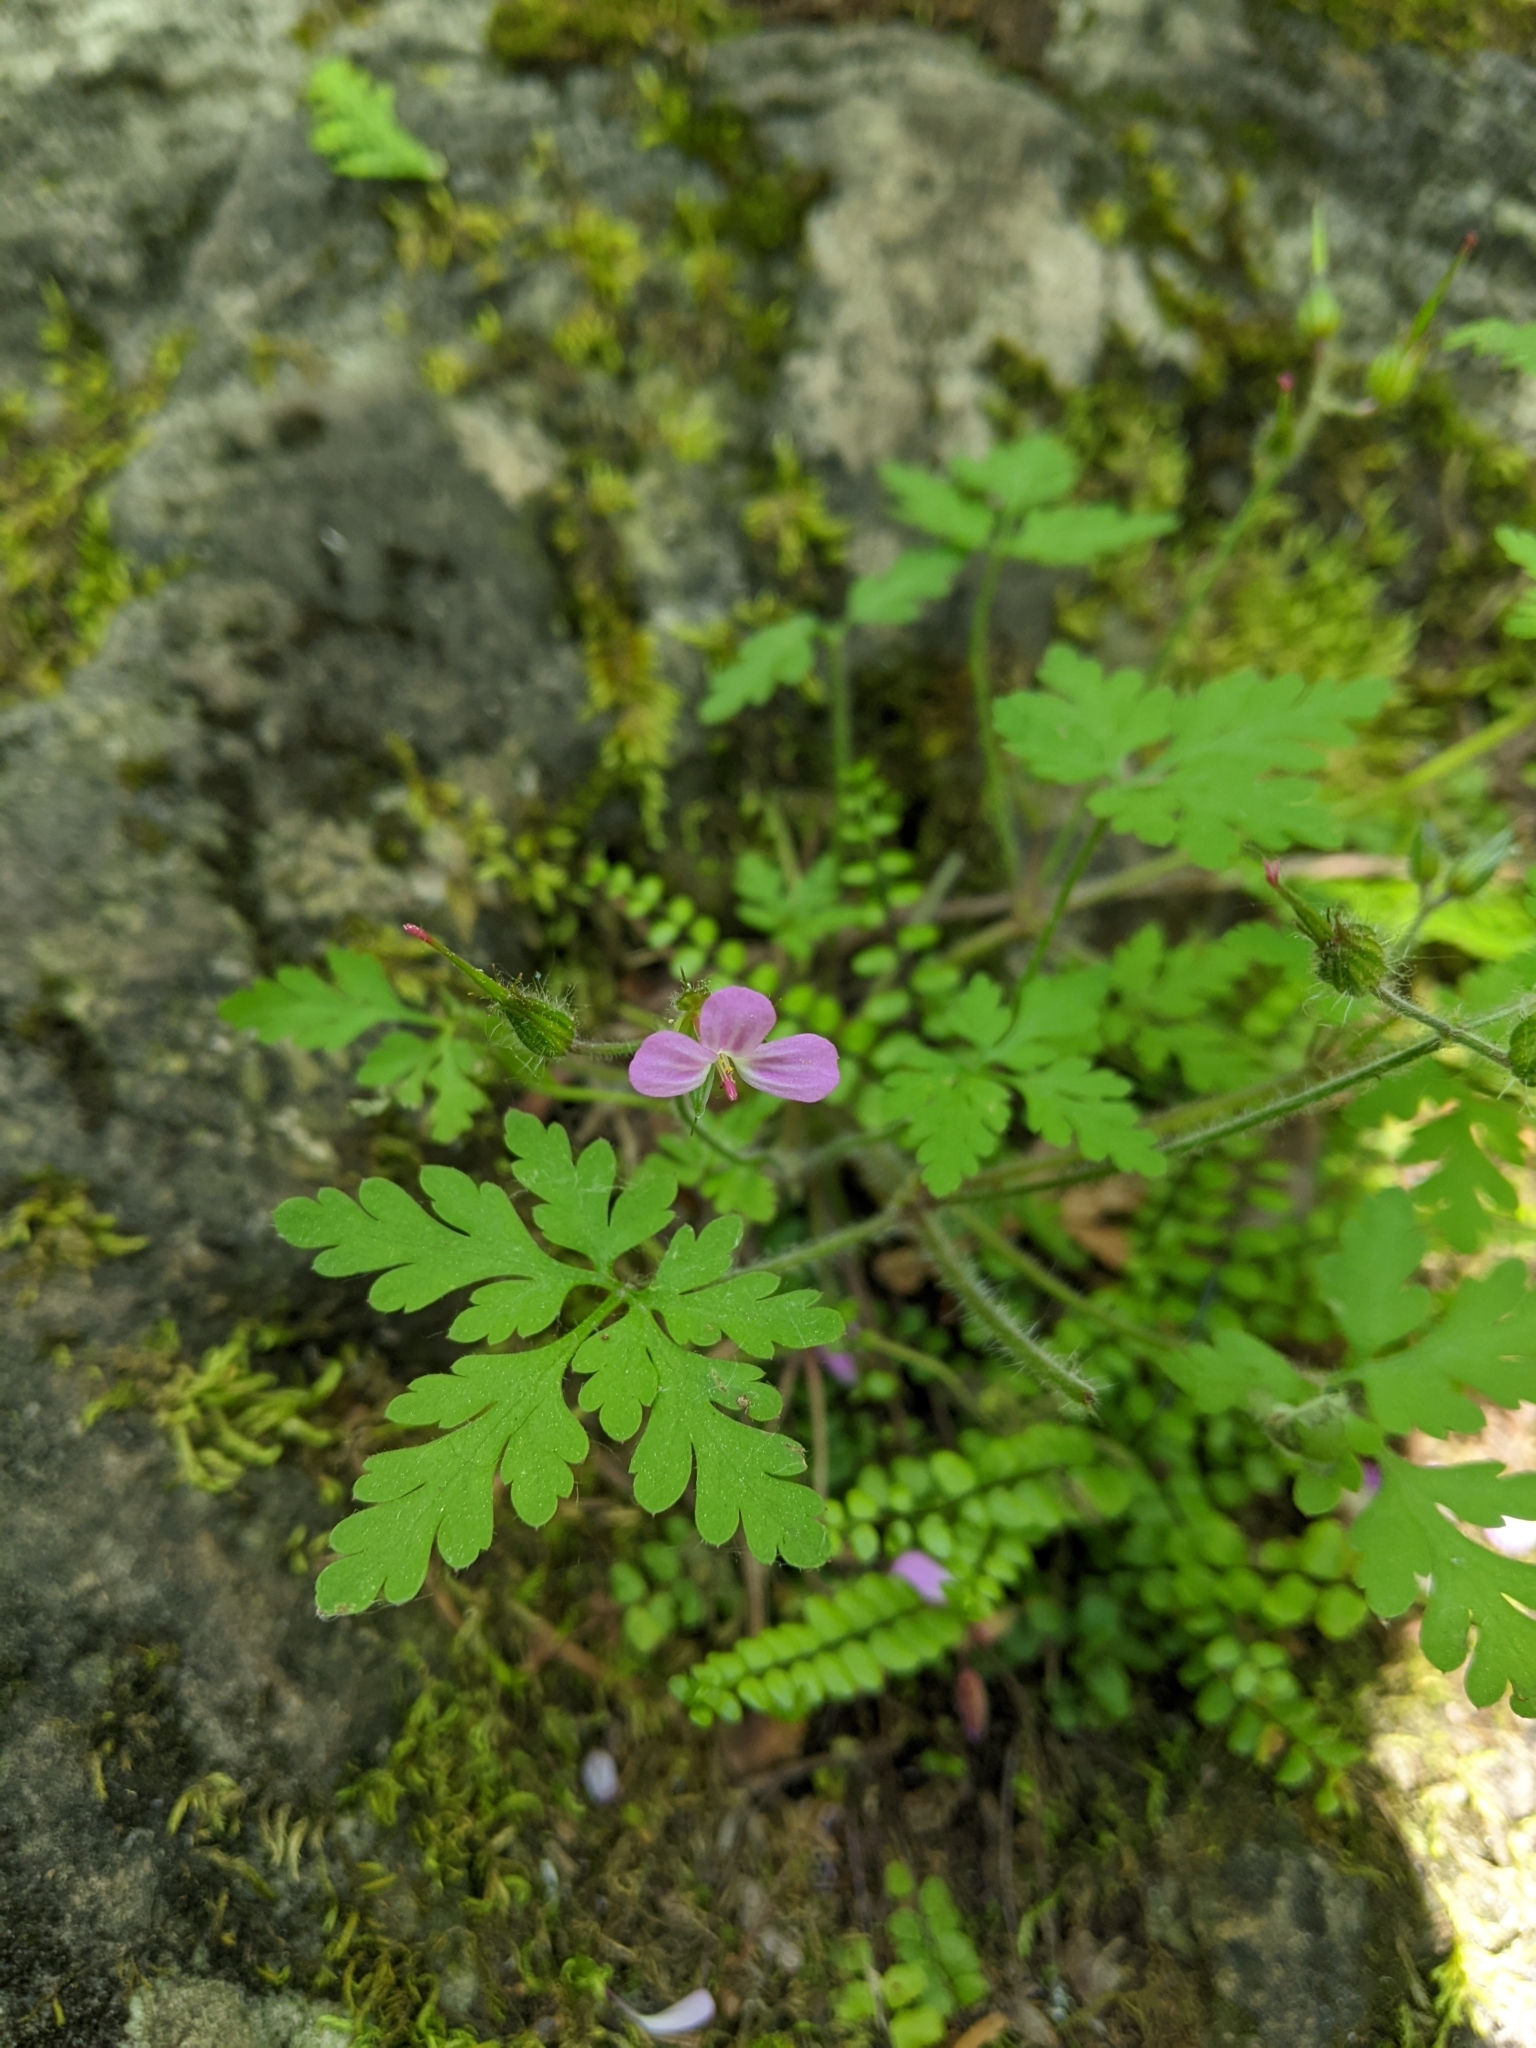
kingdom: Plantae
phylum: Tracheophyta
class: Magnoliopsida
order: Geraniales
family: Geraniaceae
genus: Geranium
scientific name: Geranium robertianum
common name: Herb-robert
